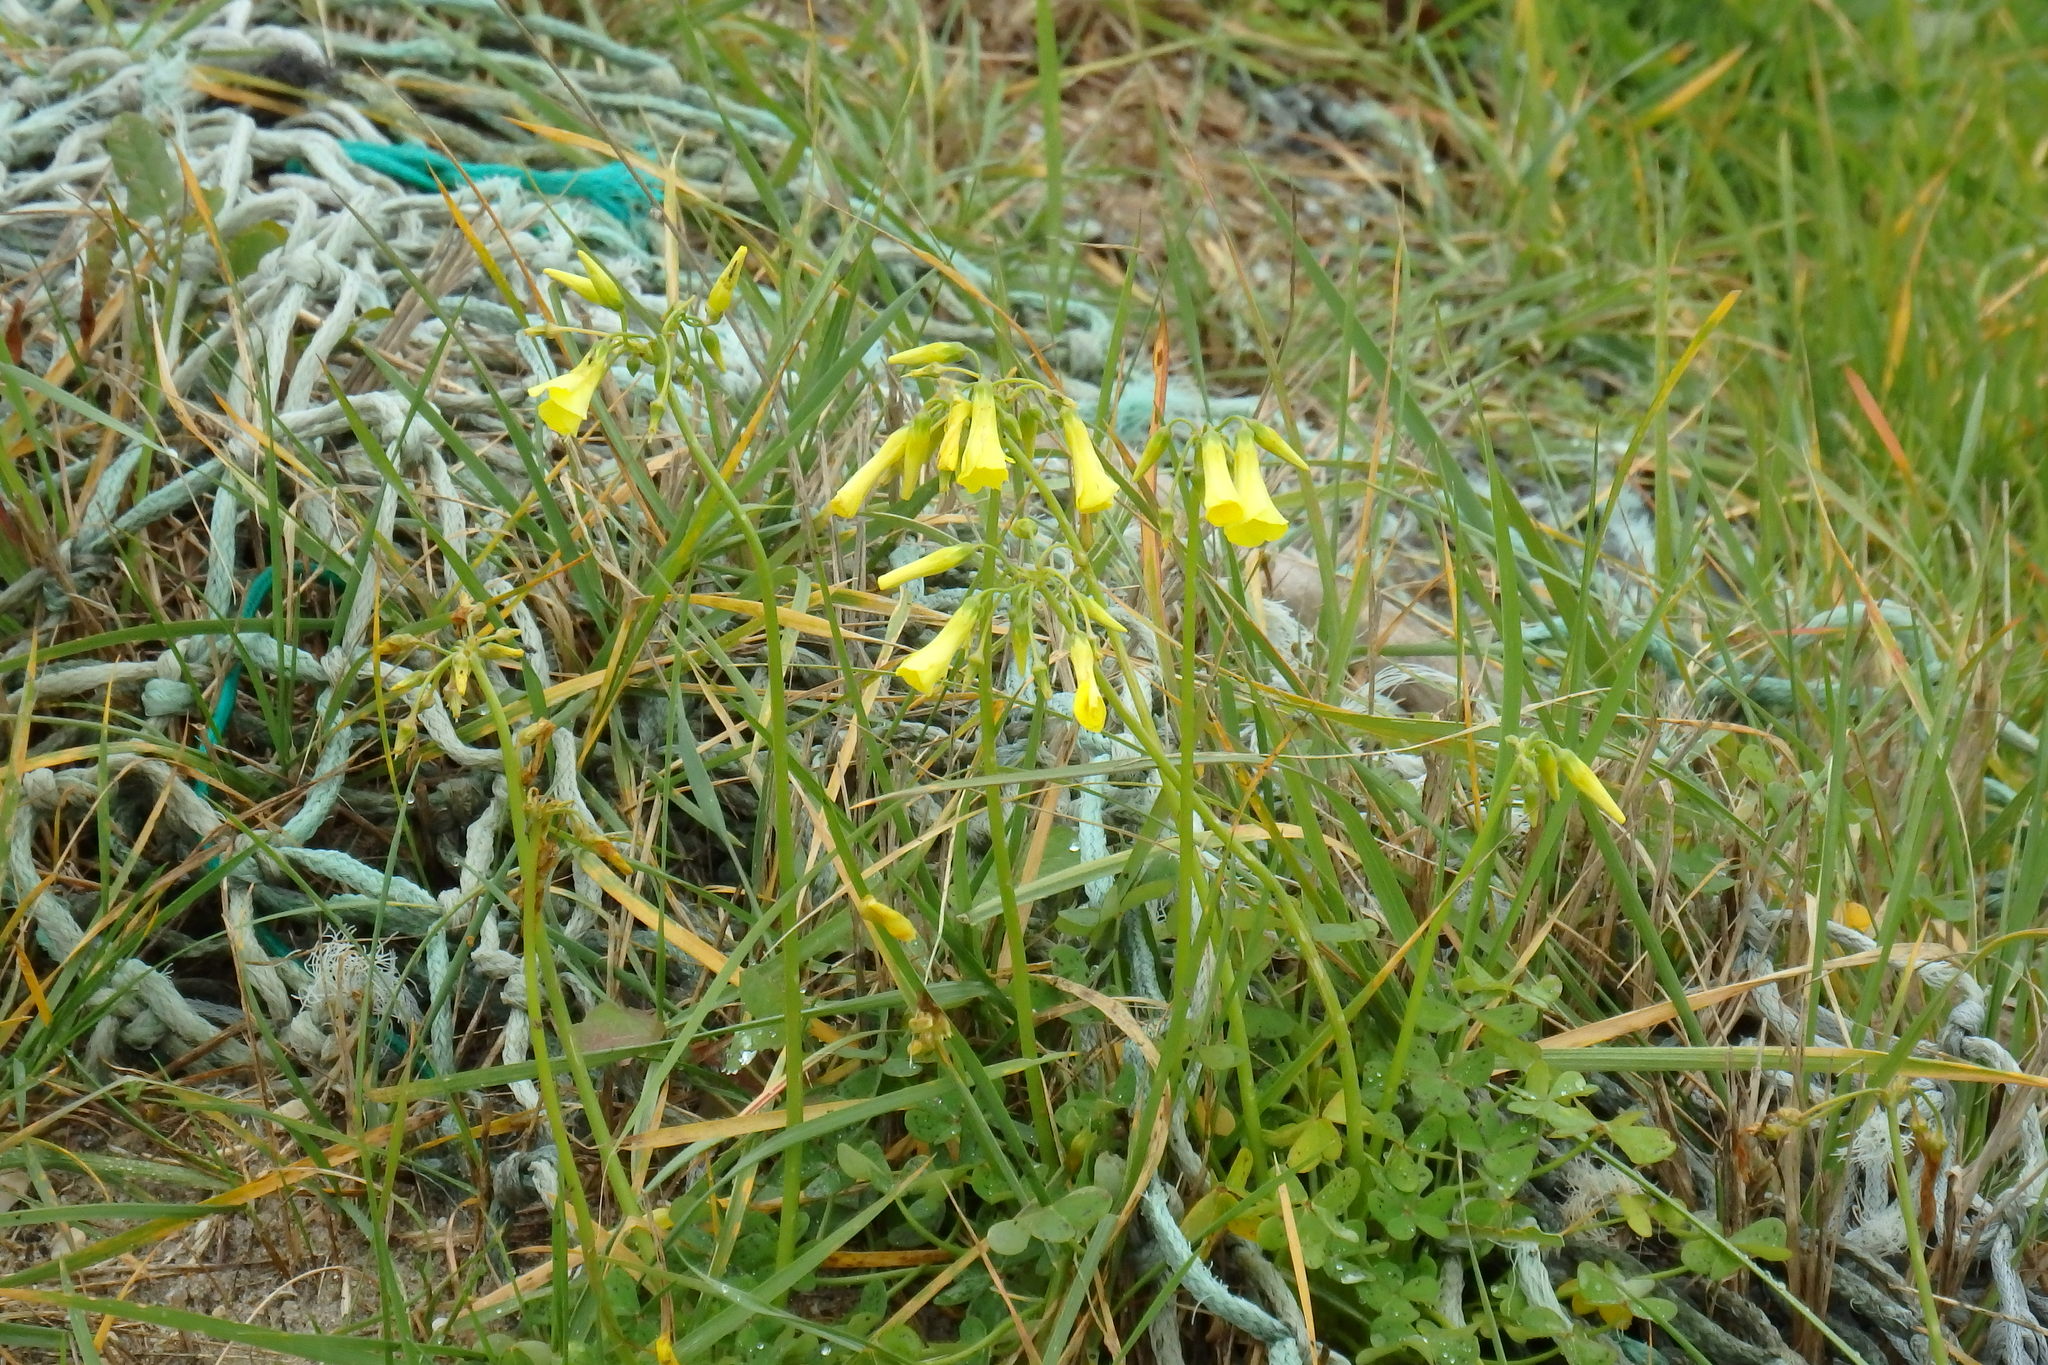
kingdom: Plantae
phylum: Tracheophyta
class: Magnoliopsida
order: Oxalidales
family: Oxalidaceae
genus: Oxalis
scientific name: Oxalis pes-caprae
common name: Bermuda-buttercup
